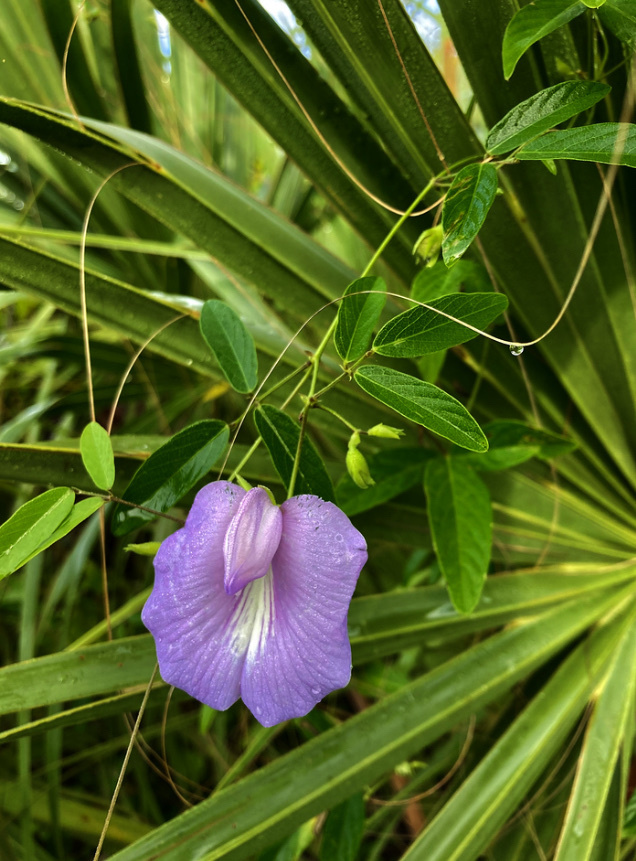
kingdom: Plantae
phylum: Tracheophyta
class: Magnoliopsida
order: Fabales
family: Fabaceae
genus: Centrosema
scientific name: Centrosema virginianum
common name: Butterfly-pea
